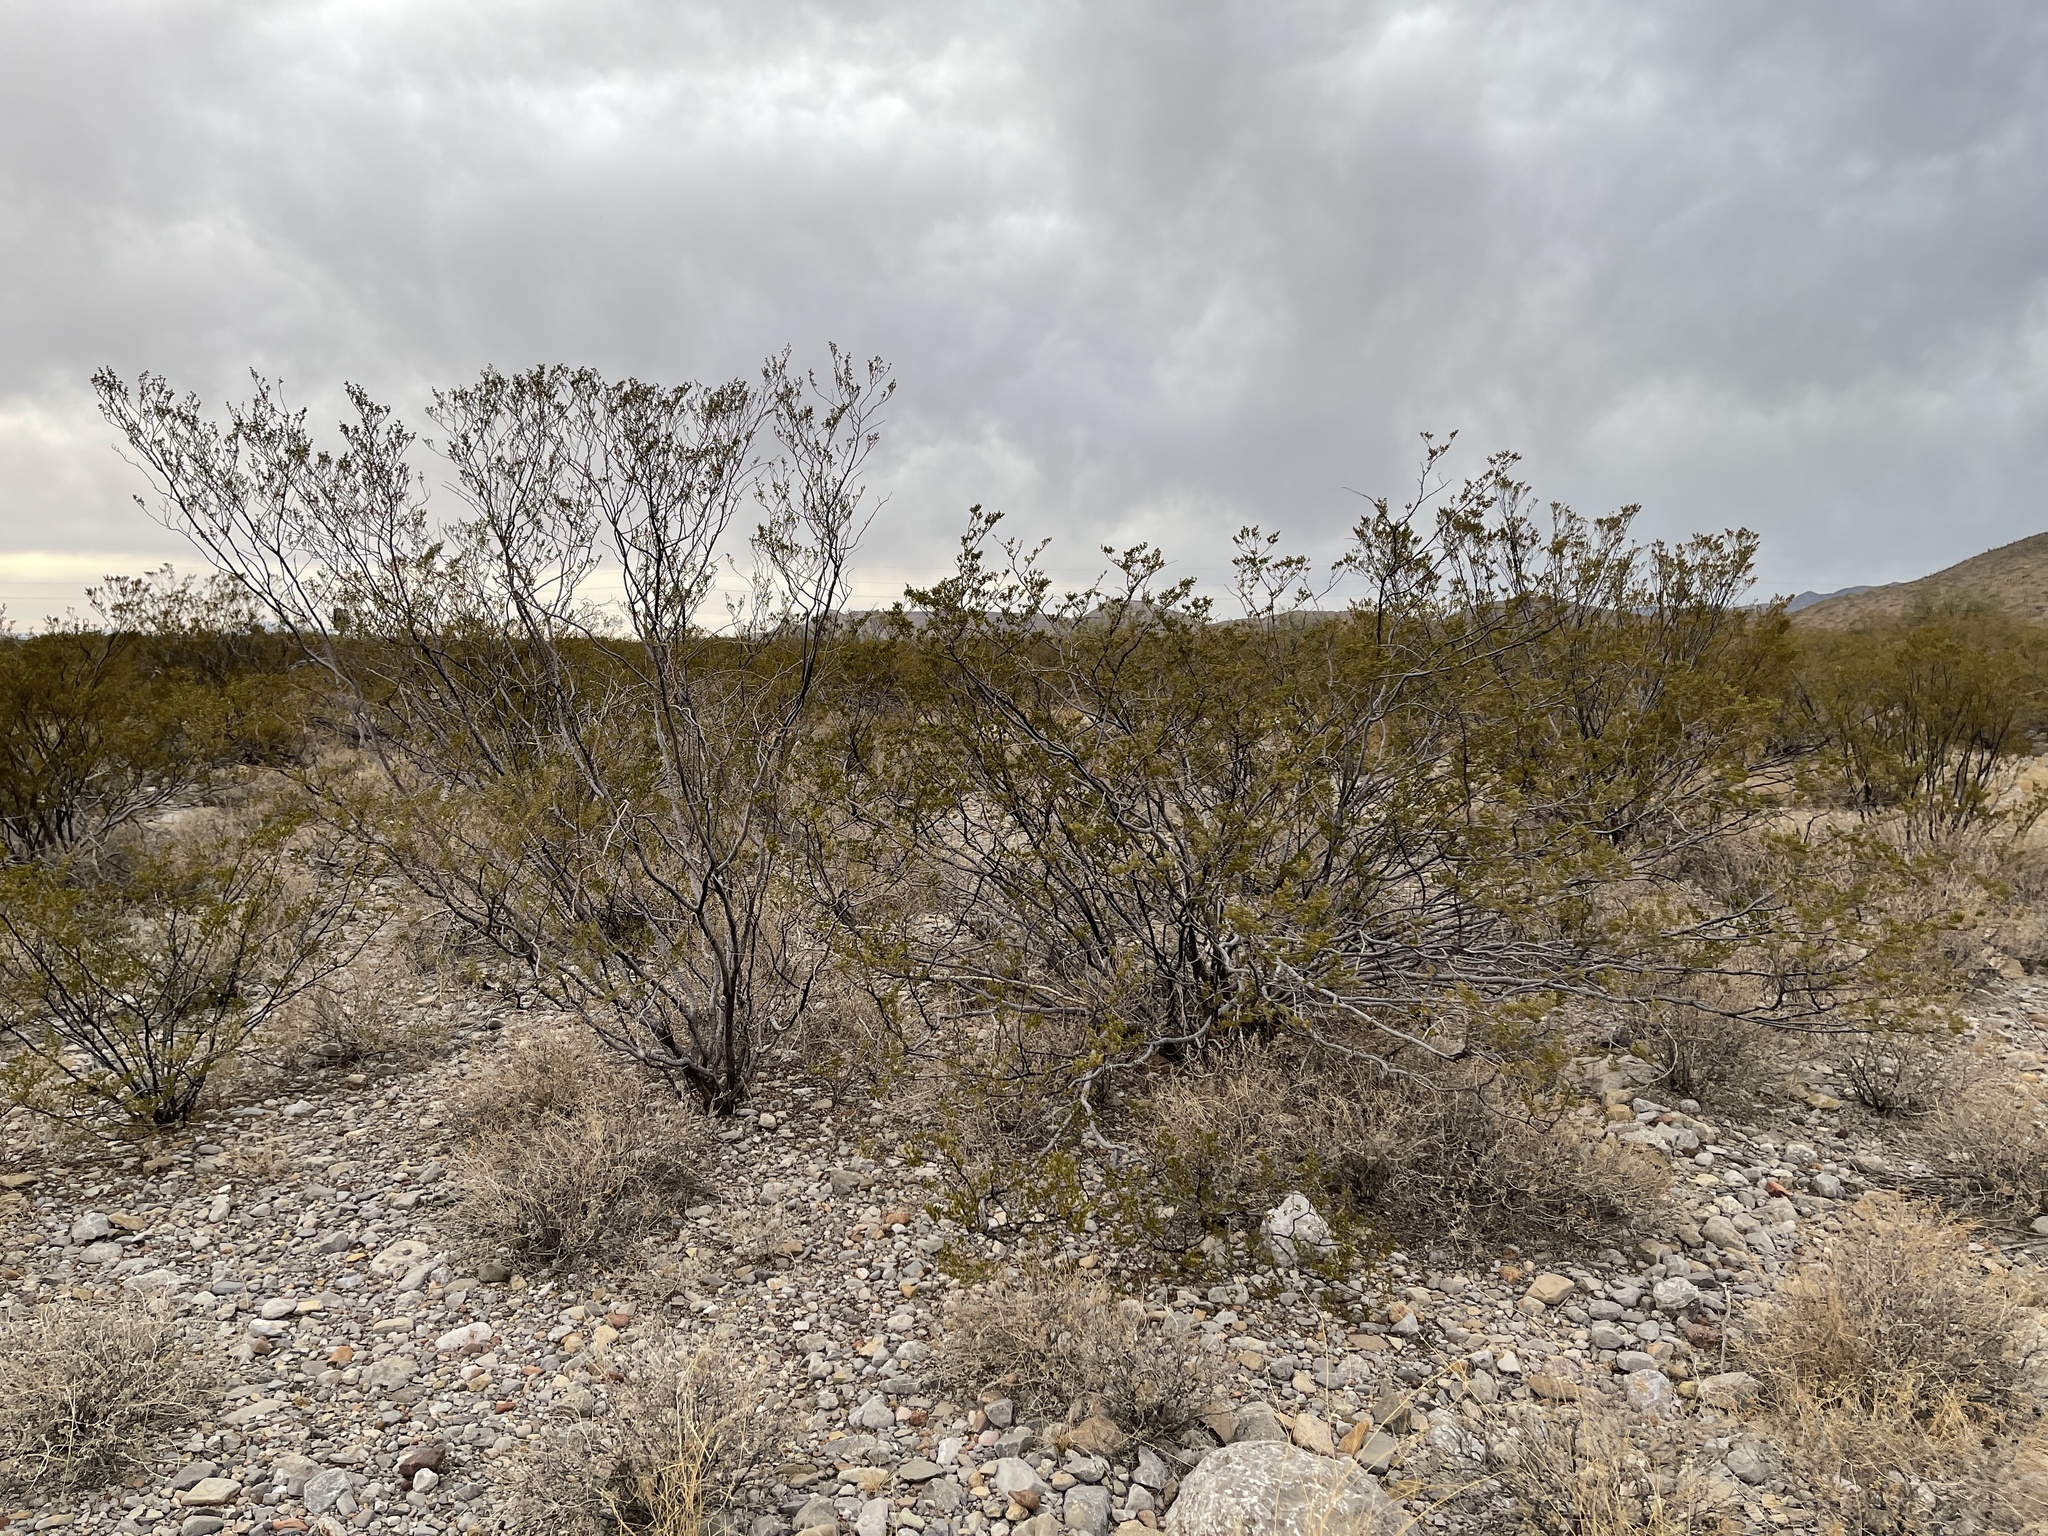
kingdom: Plantae
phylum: Tracheophyta
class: Magnoliopsida
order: Zygophyllales
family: Zygophyllaceae
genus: Larrea
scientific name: Larrea tridentata
